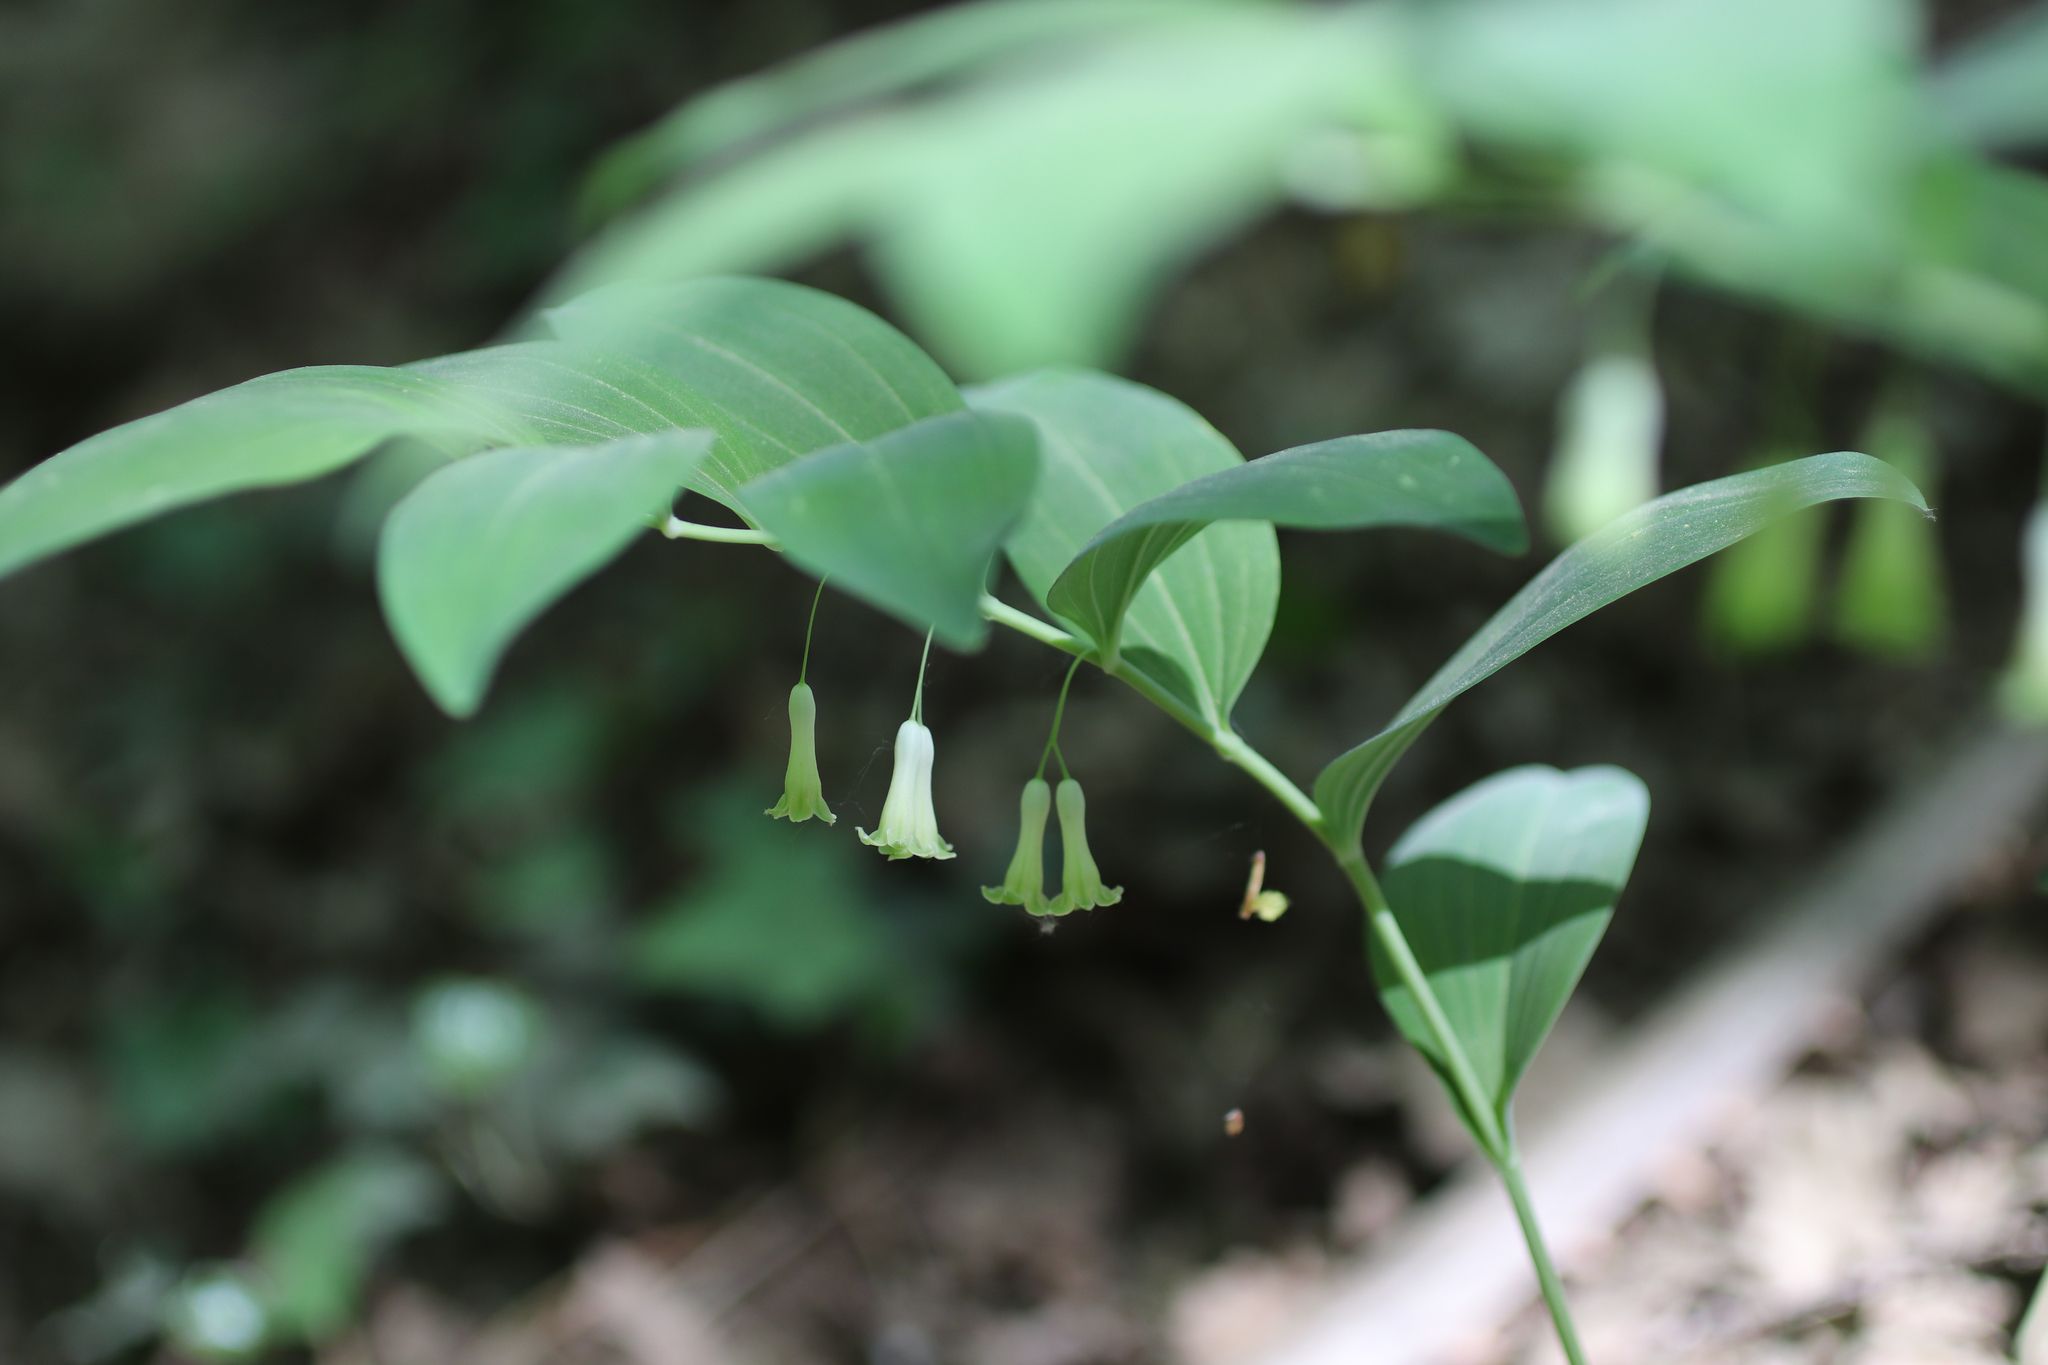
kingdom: Plantae
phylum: Tracheophyta
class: Liliopsida
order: Asparagales
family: Asparagaceae
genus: Polygonatum
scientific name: Polygonatum multiflorum
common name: Solomon's-seal
